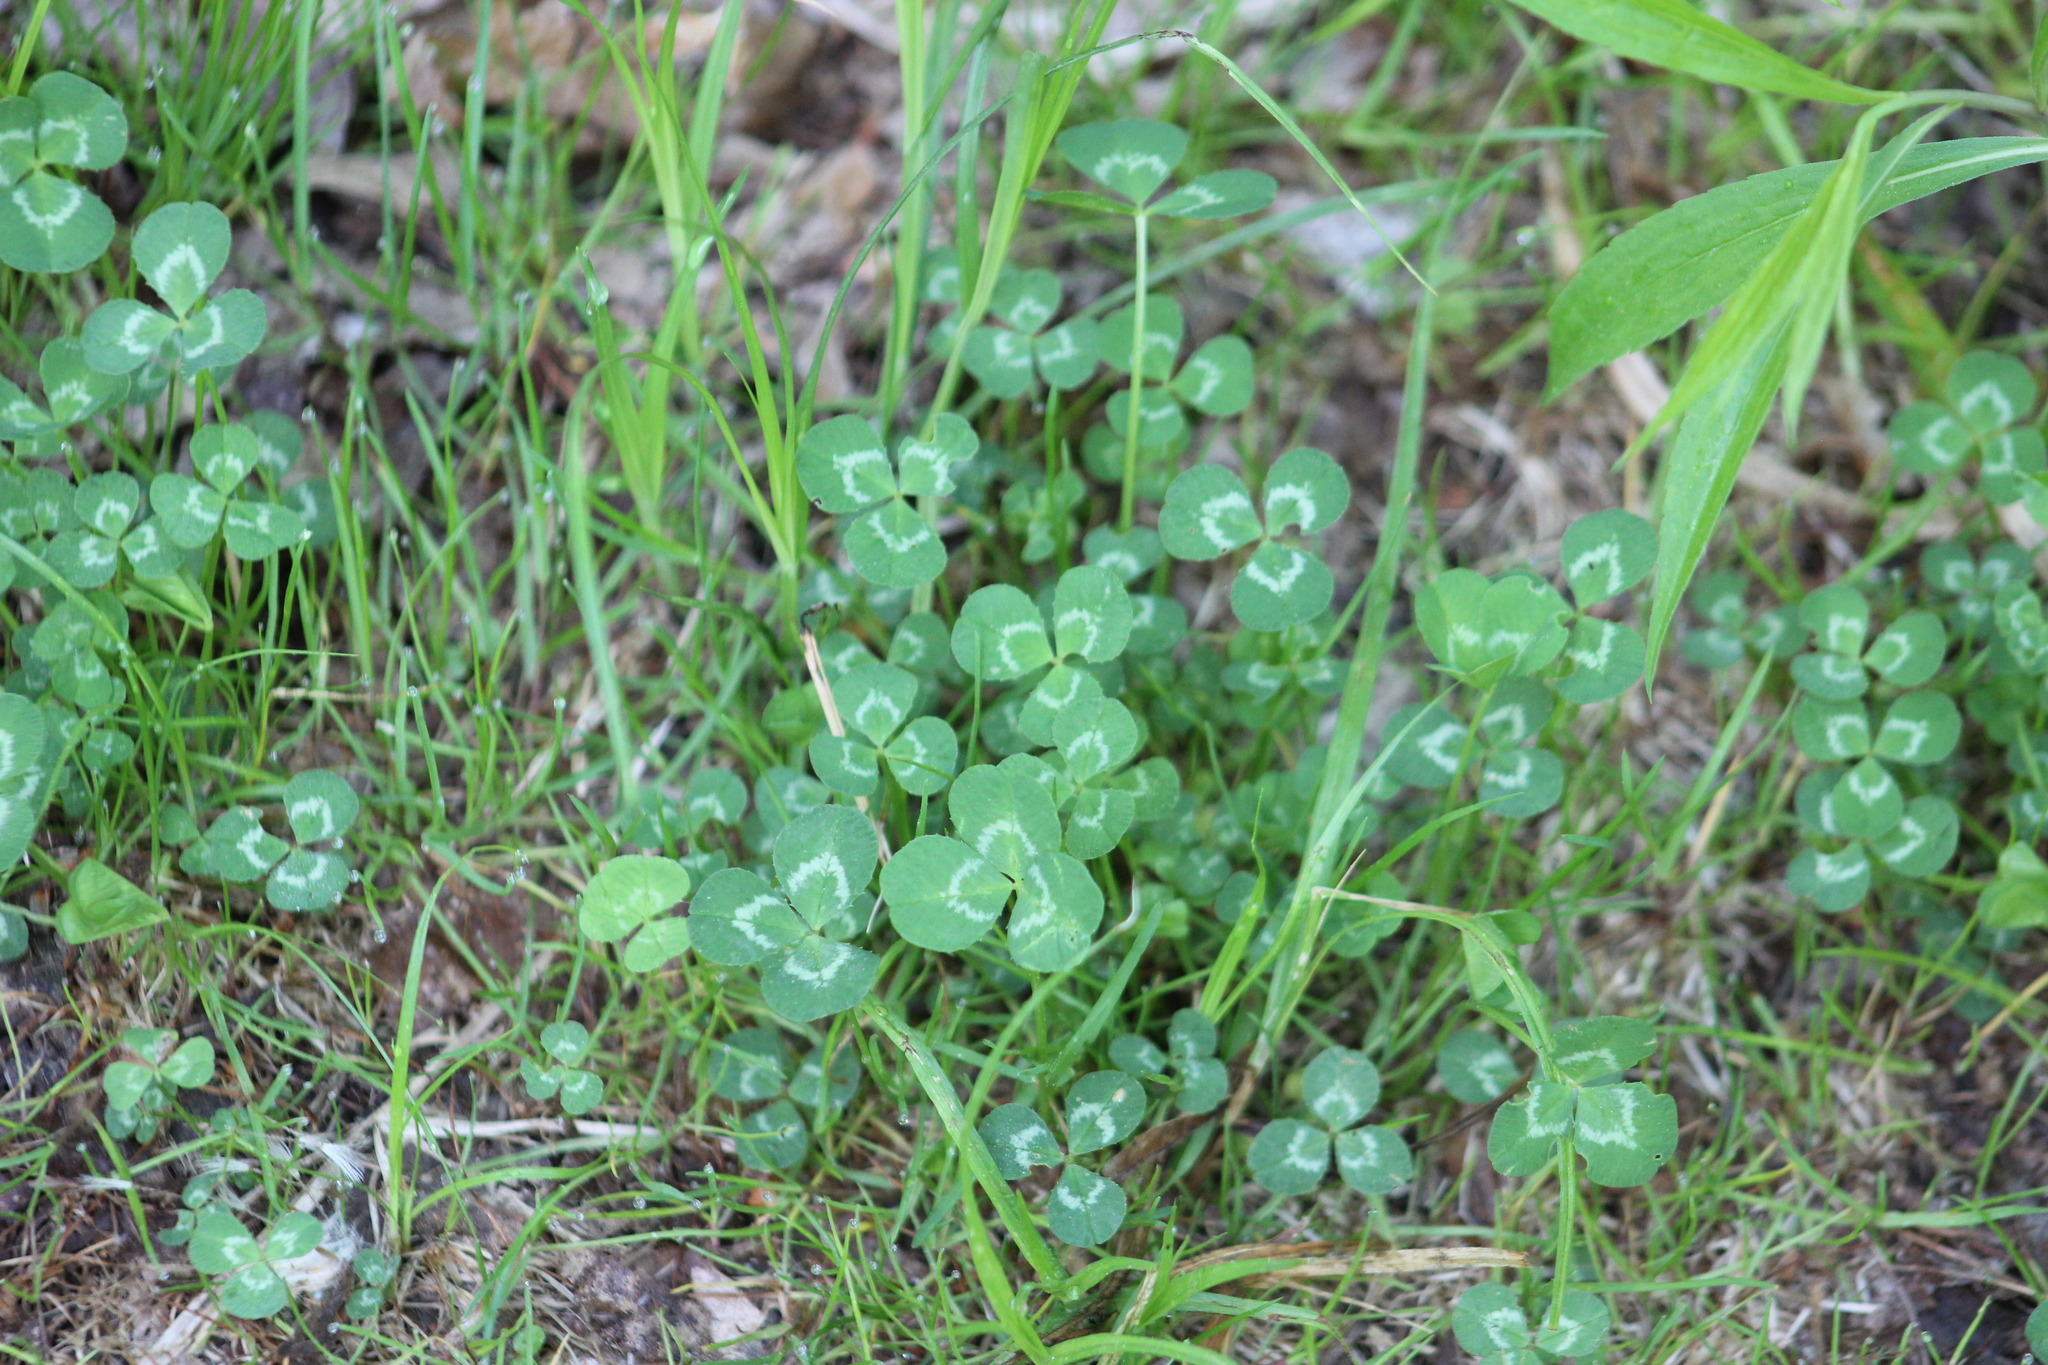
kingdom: Plantae
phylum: Tracheophyta
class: Magnoliopsida
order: Fabales
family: Fabaceae
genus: Trifolium
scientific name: Trifolium repens
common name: White clover
